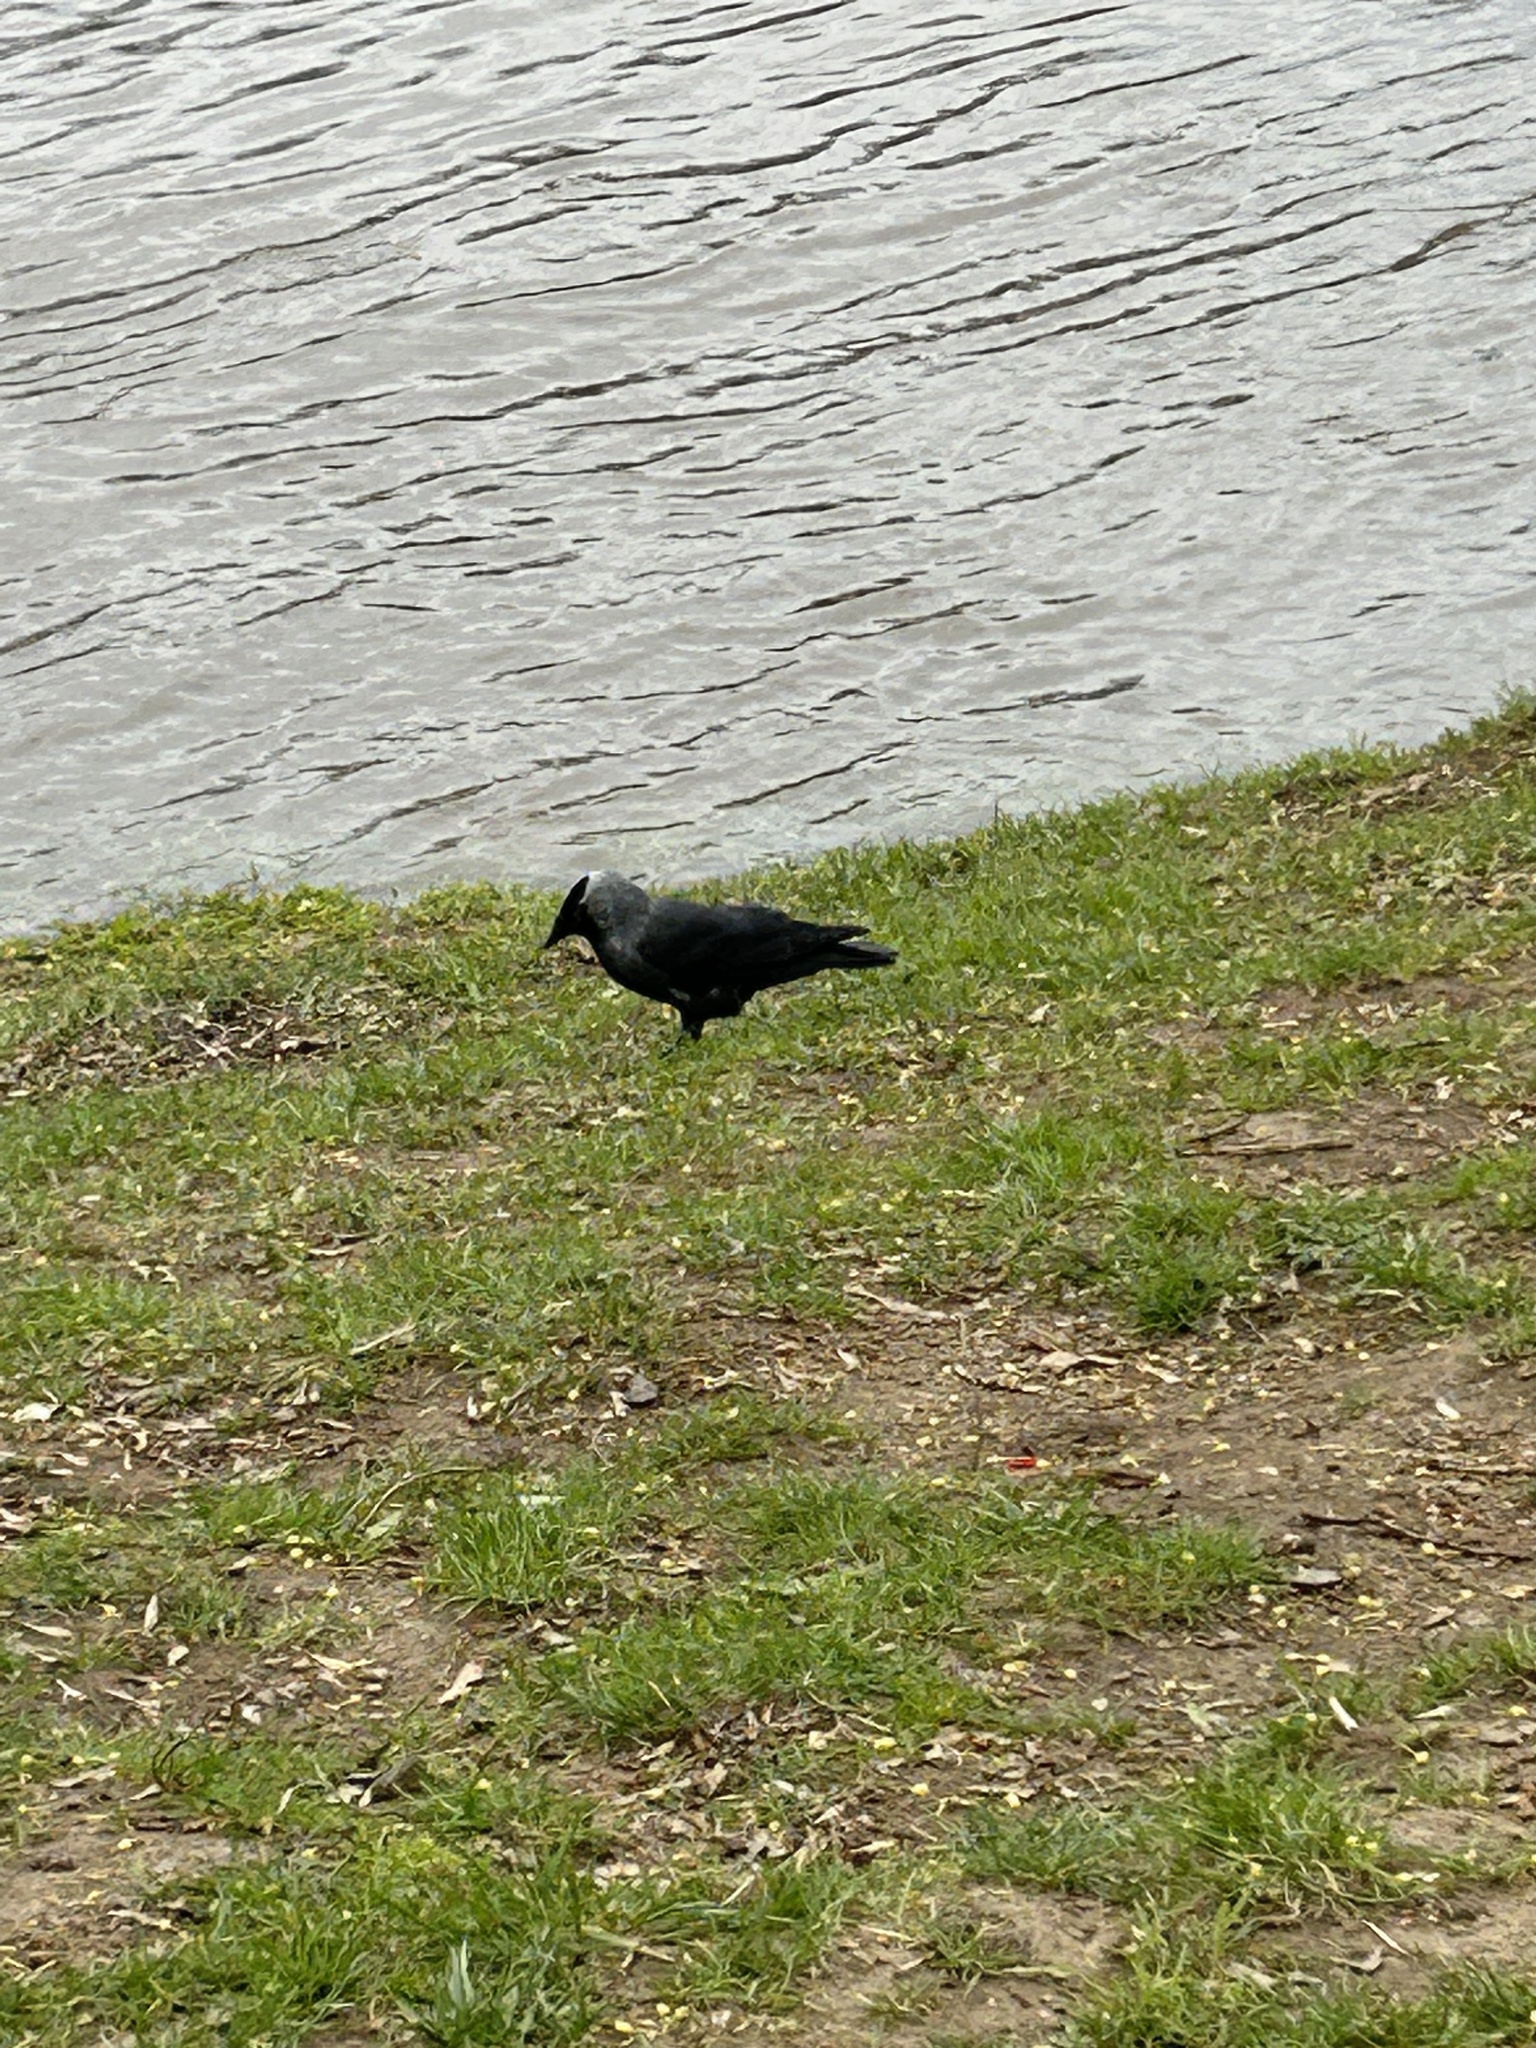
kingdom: Animalia
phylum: Chordata
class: Aves
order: Passeriformes
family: Corvidae
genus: Coloeus
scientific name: Coloeus monedula
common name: Western jackdaw
